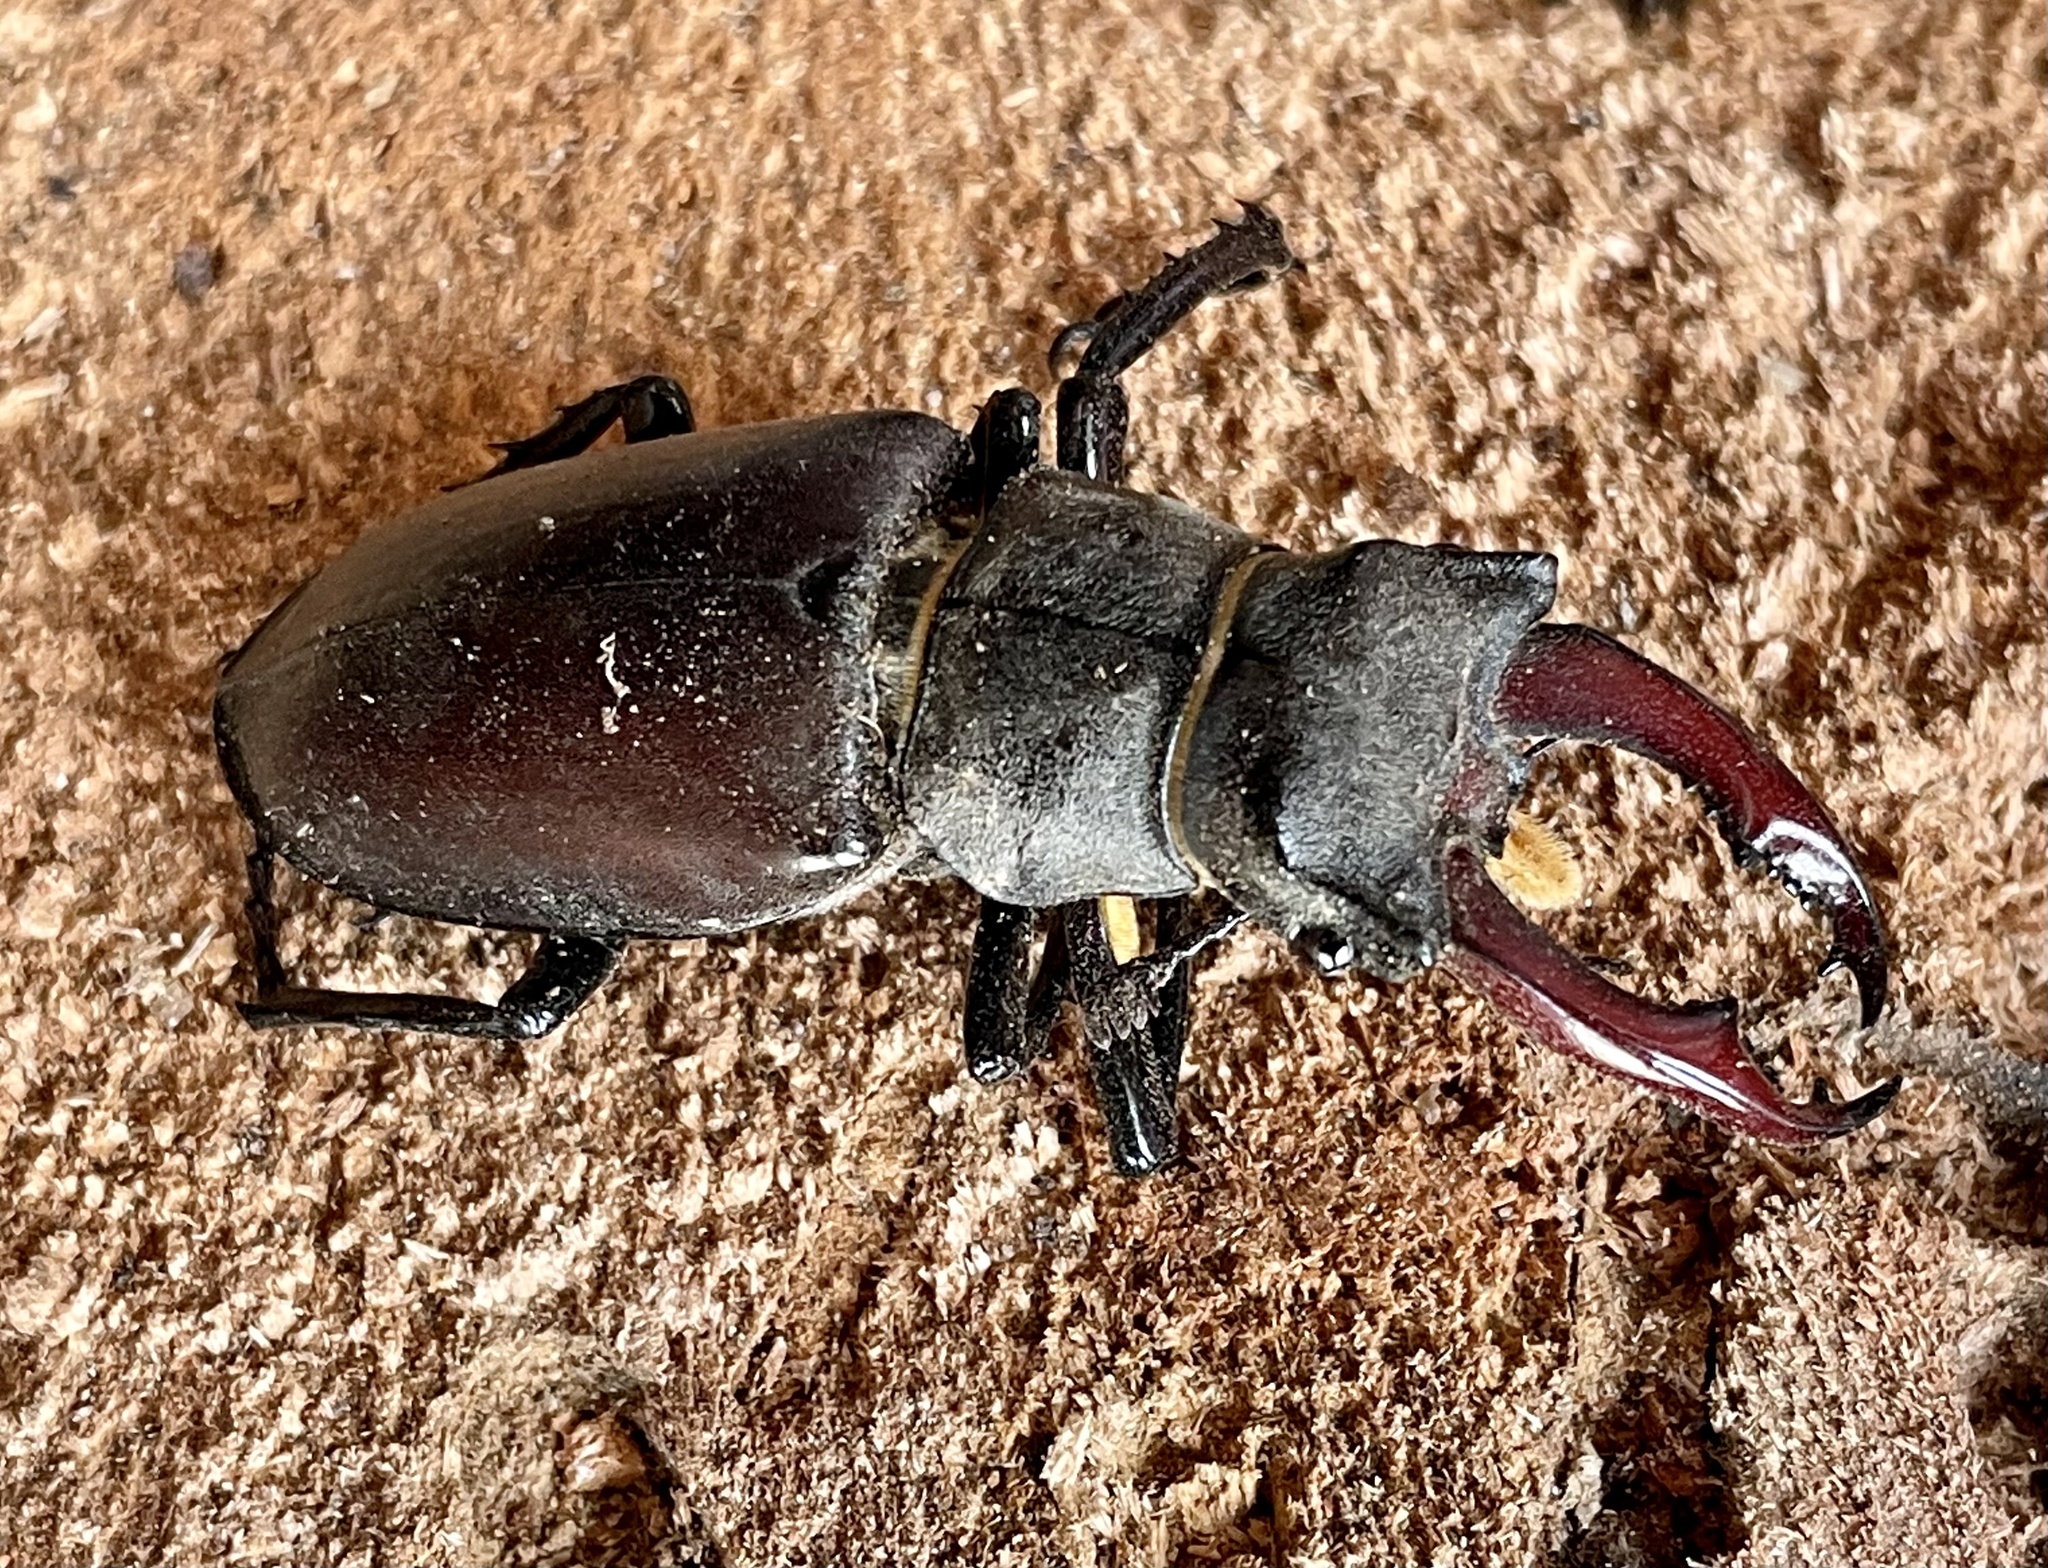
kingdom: Animalia
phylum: Arthropoda
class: Insecta
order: Coleoptera
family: Lucanidae
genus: Lucanus
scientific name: Lucanus cervus
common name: Stag beetle
